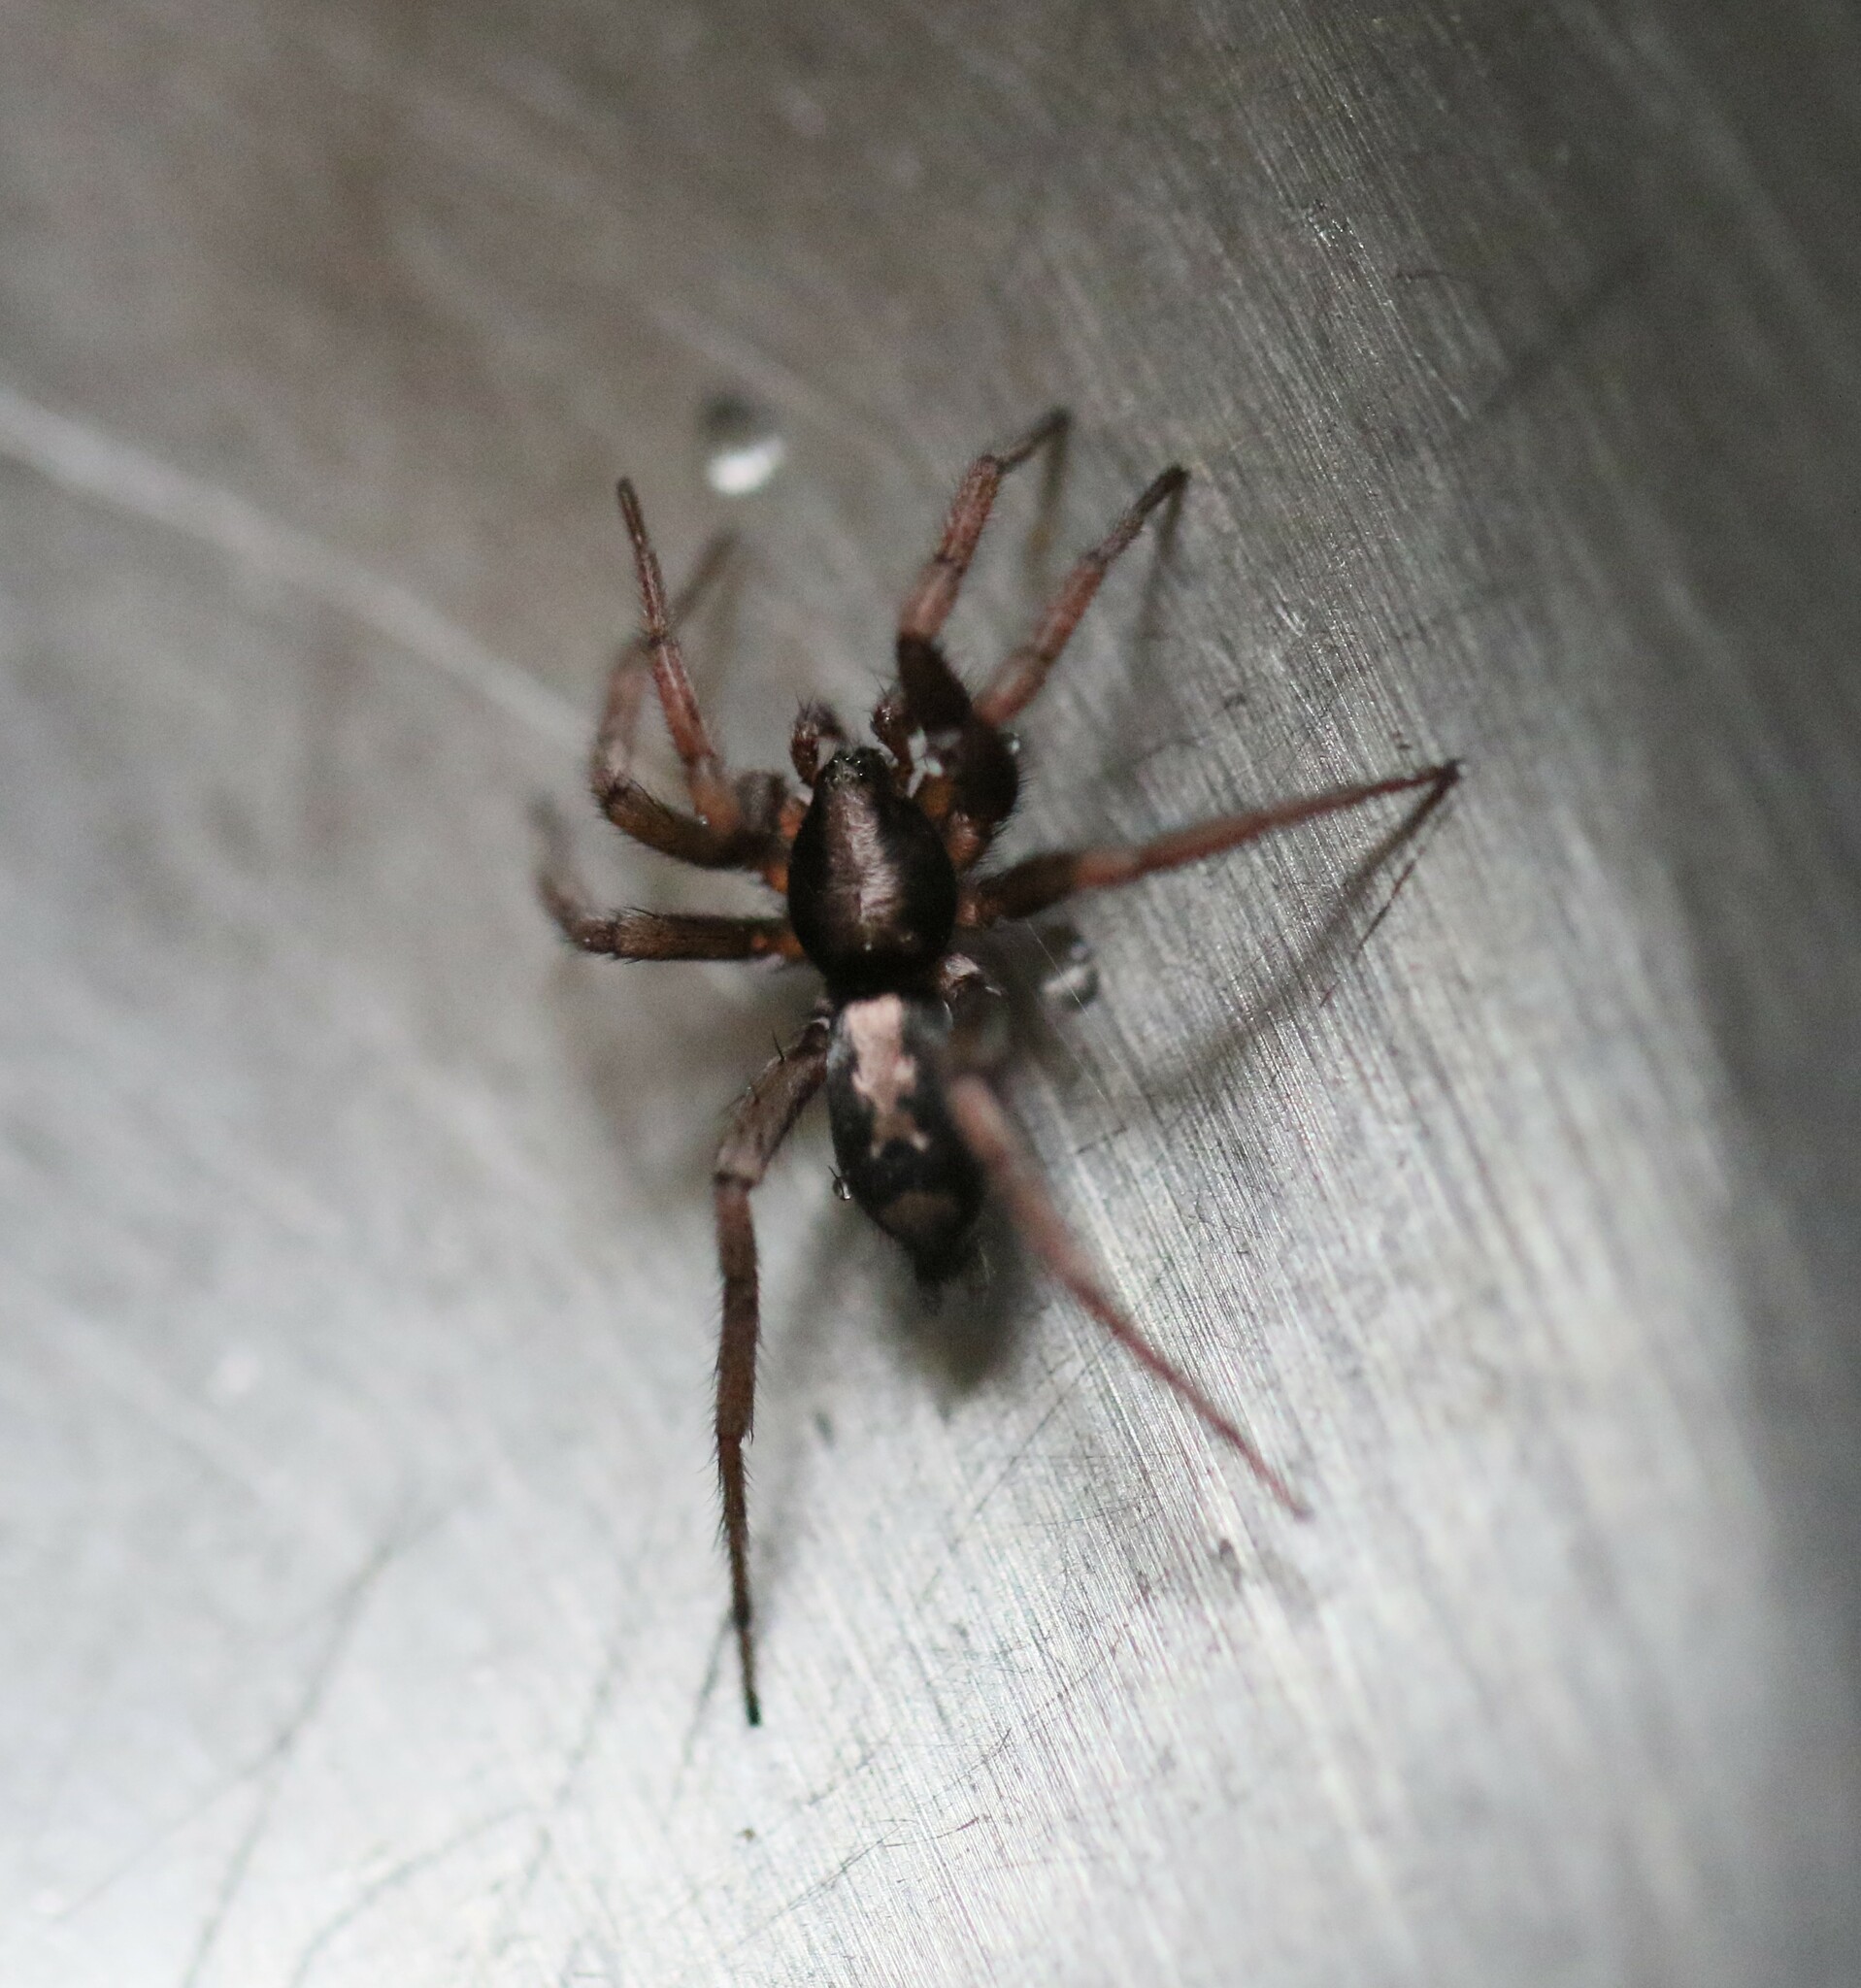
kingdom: Animalia
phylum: Arthropoda
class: Arachnida
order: Araneae
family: Gnaphosidae
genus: Herpyllus
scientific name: Herpyllus ecclesiasticus
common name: Eastern parson spider
